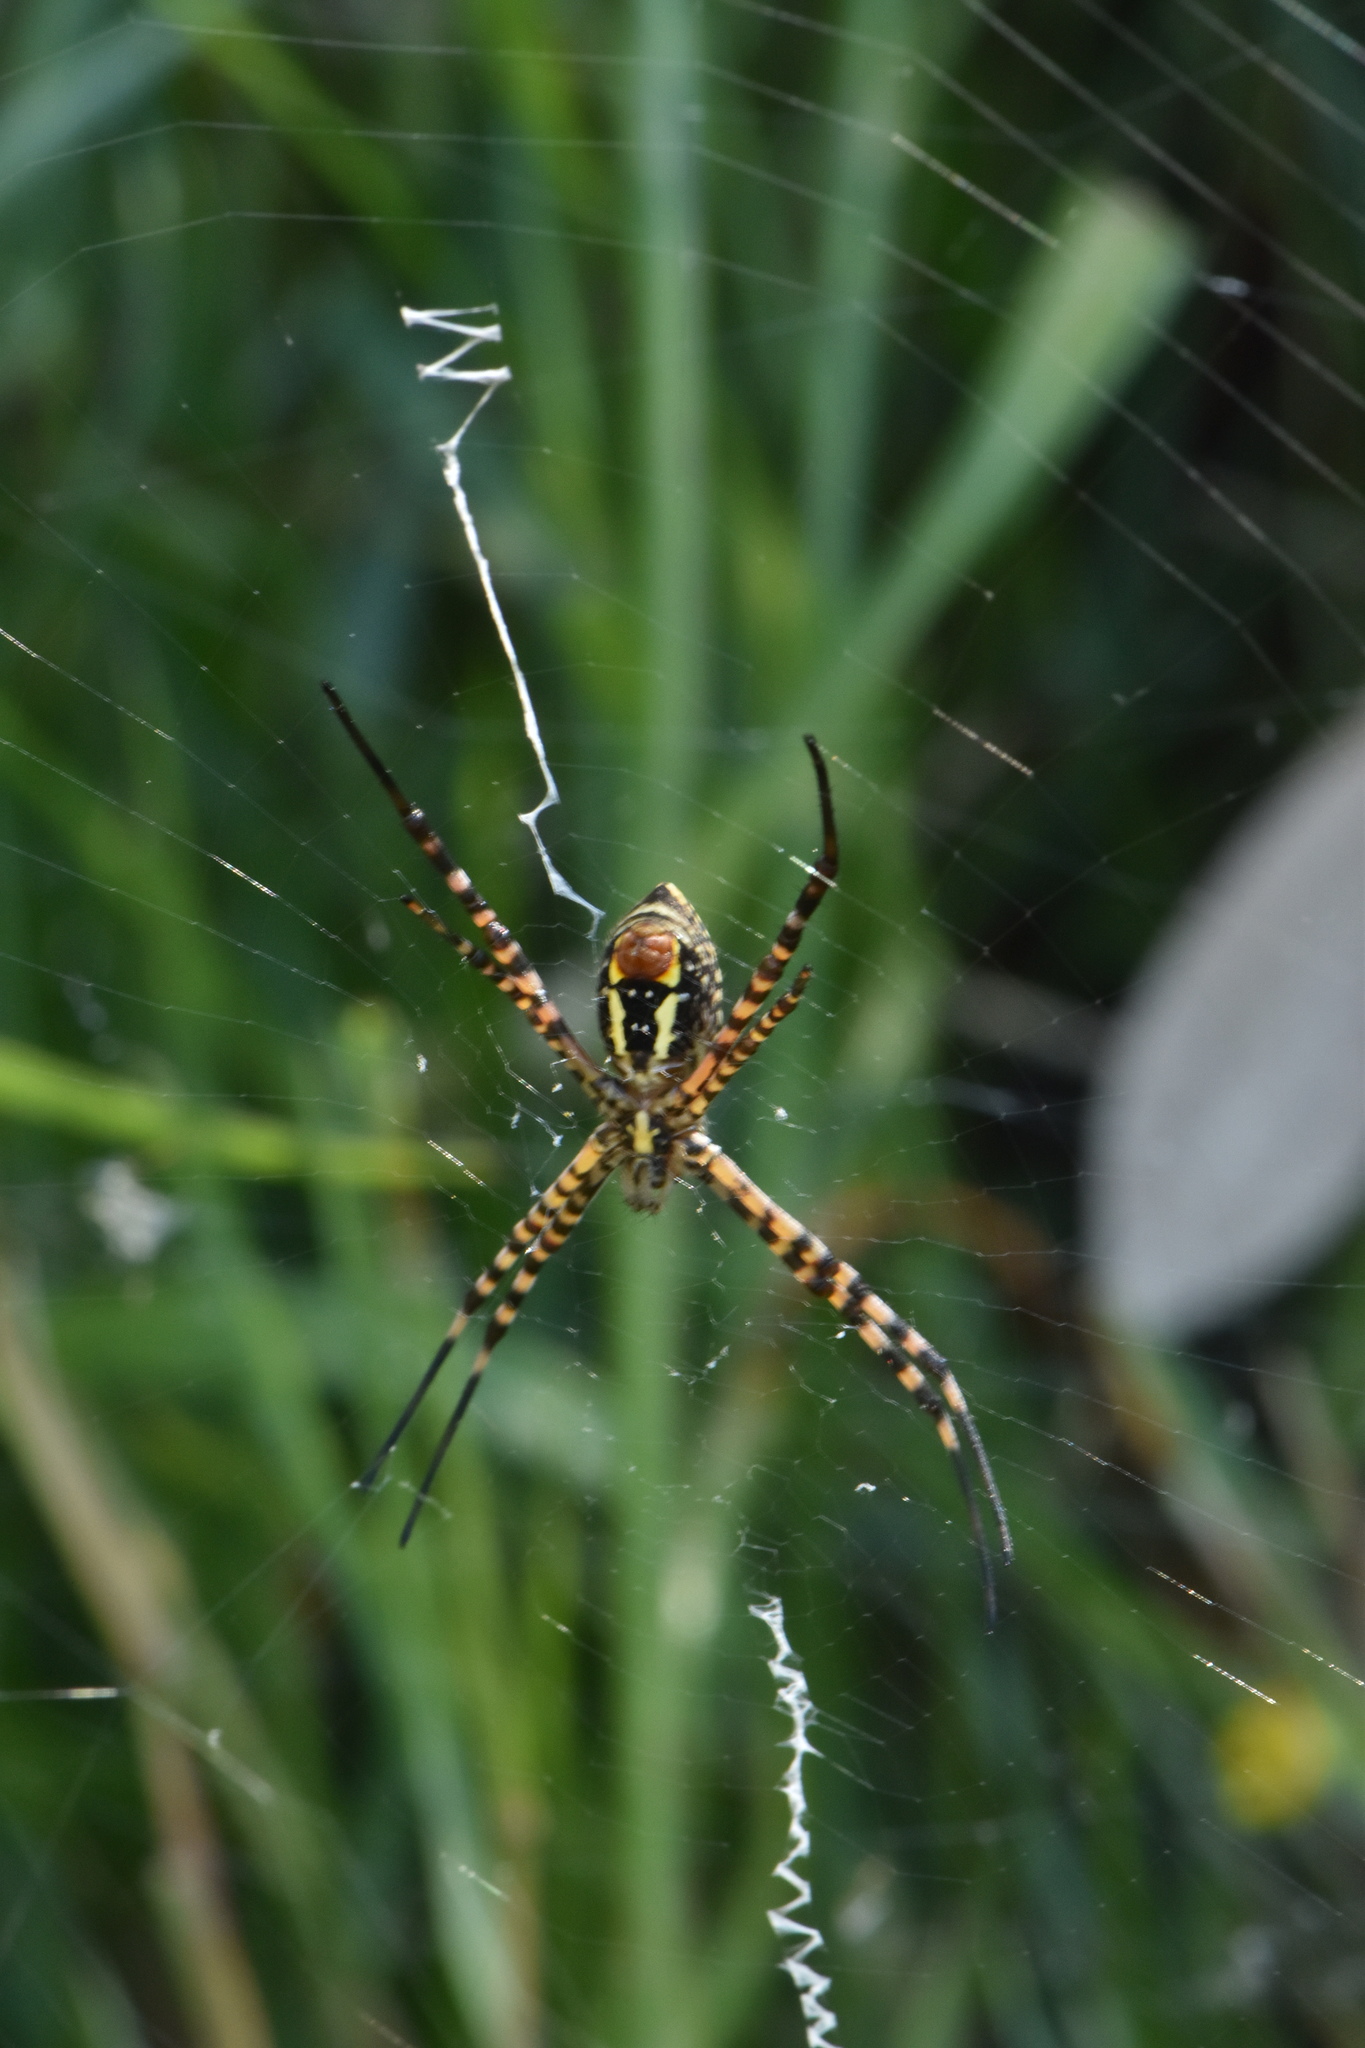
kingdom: Animalia
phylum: Arthropoda
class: Arachnida
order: Araneae
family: Araneidae
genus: Argiope
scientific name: Argiope trifasciata
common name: Banded garden spider
